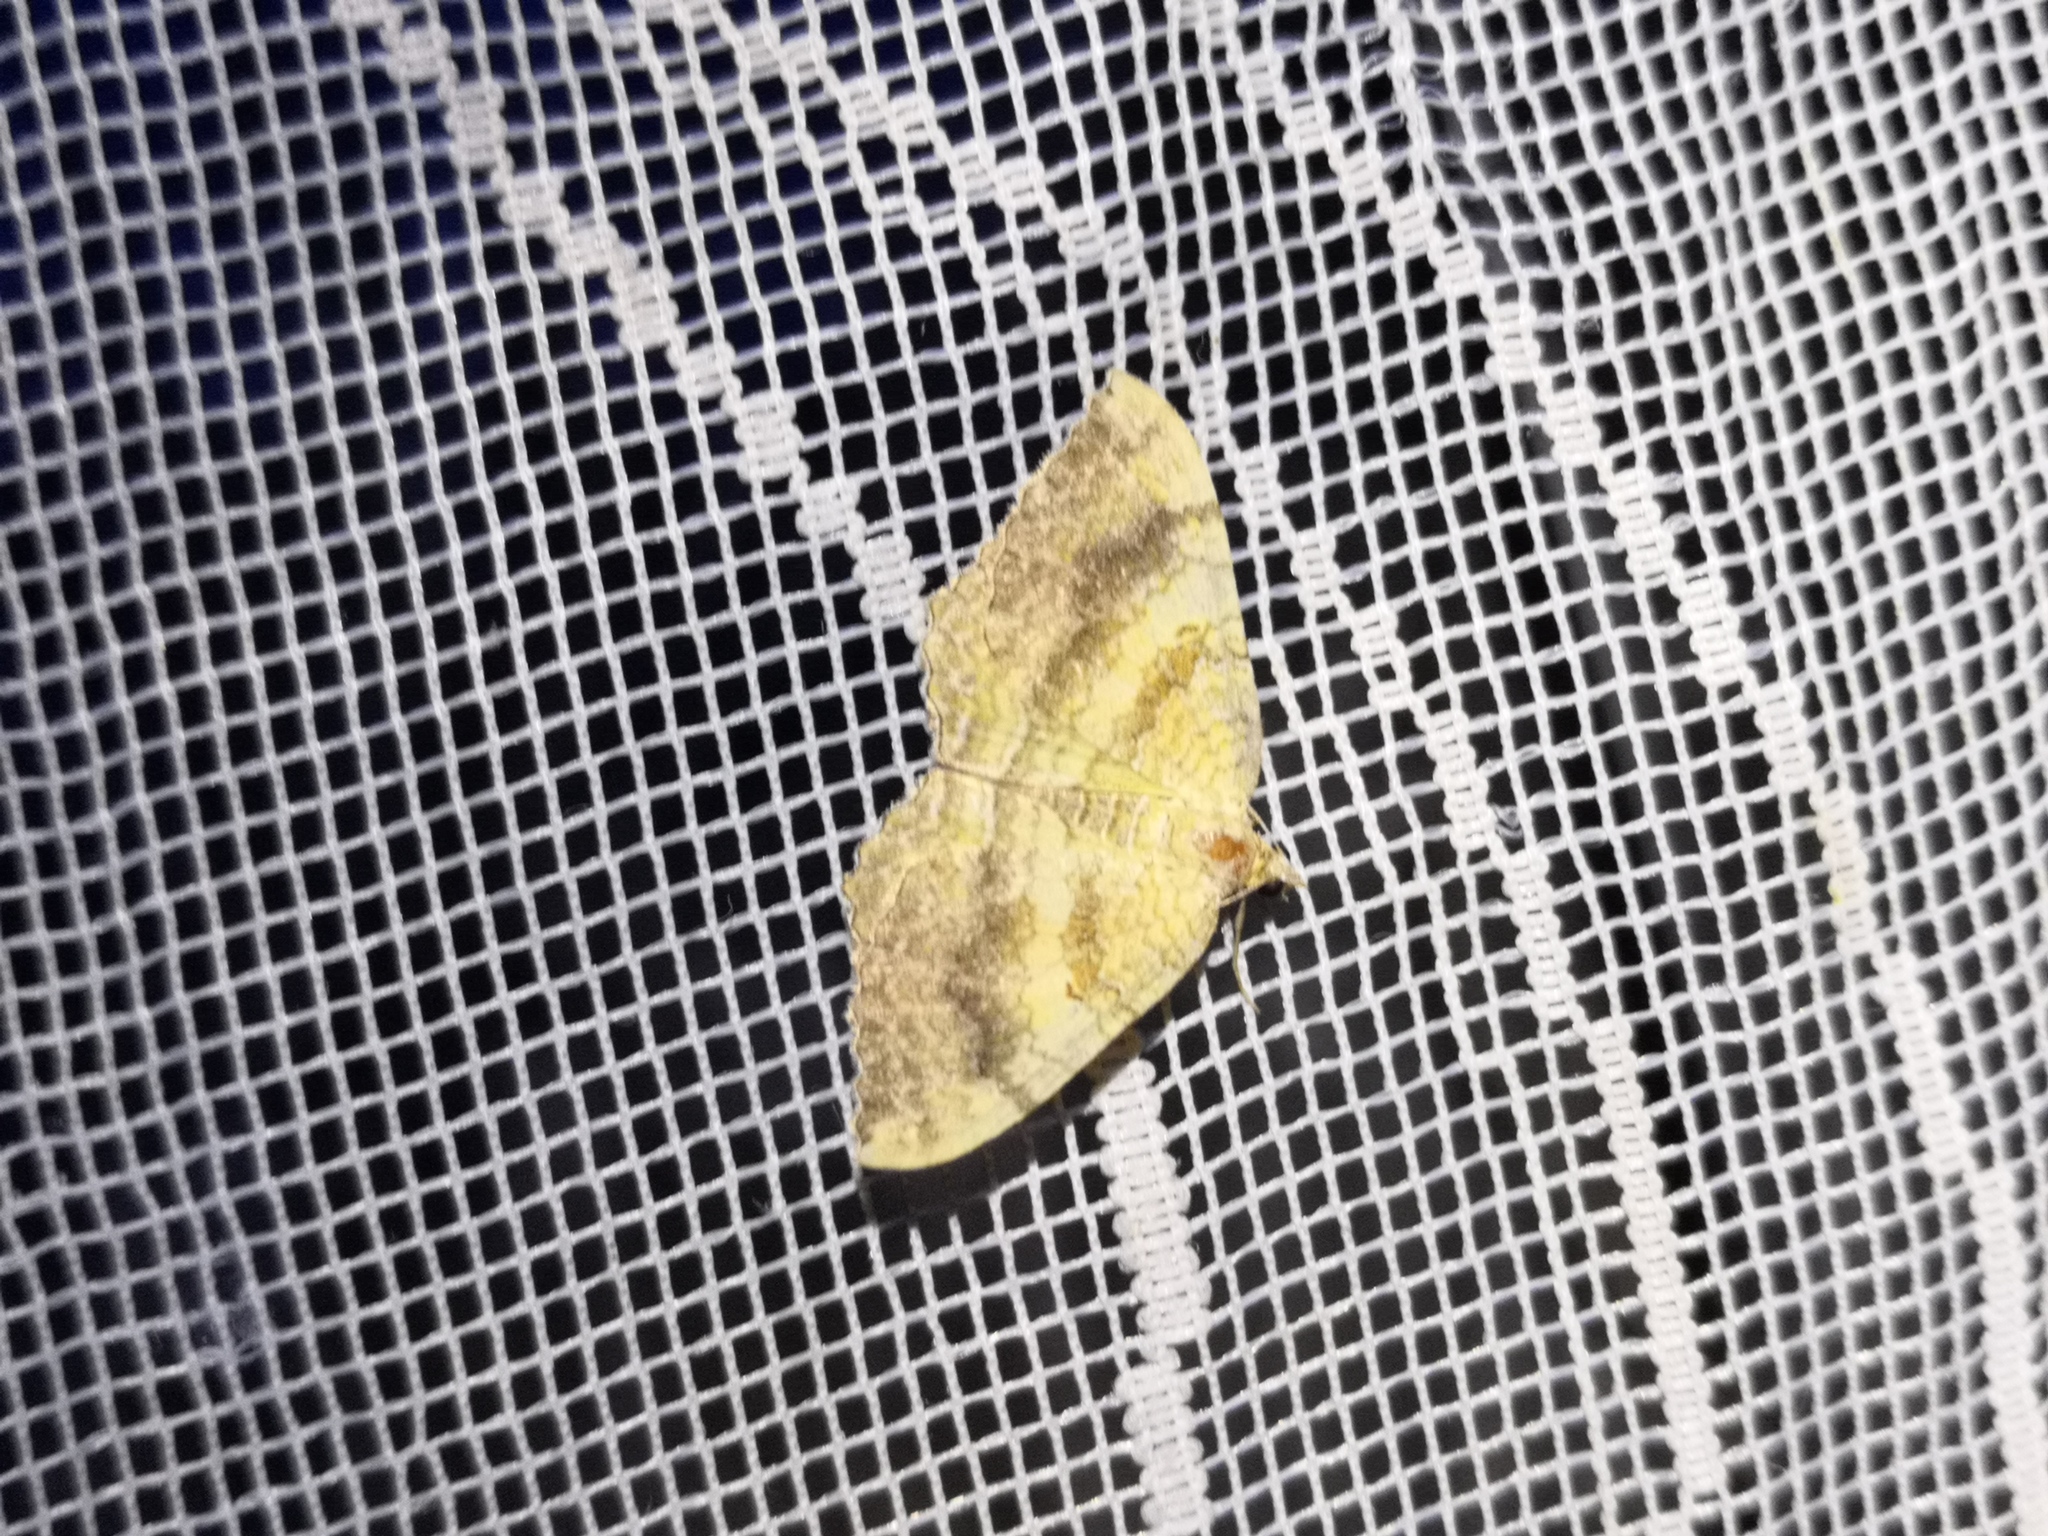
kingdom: Animalia
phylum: Arthropoda
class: Insecta
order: Lepidoptera
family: Geometridae
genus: Camptogramma
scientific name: Camptogramma bilineata
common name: Yellow shell
